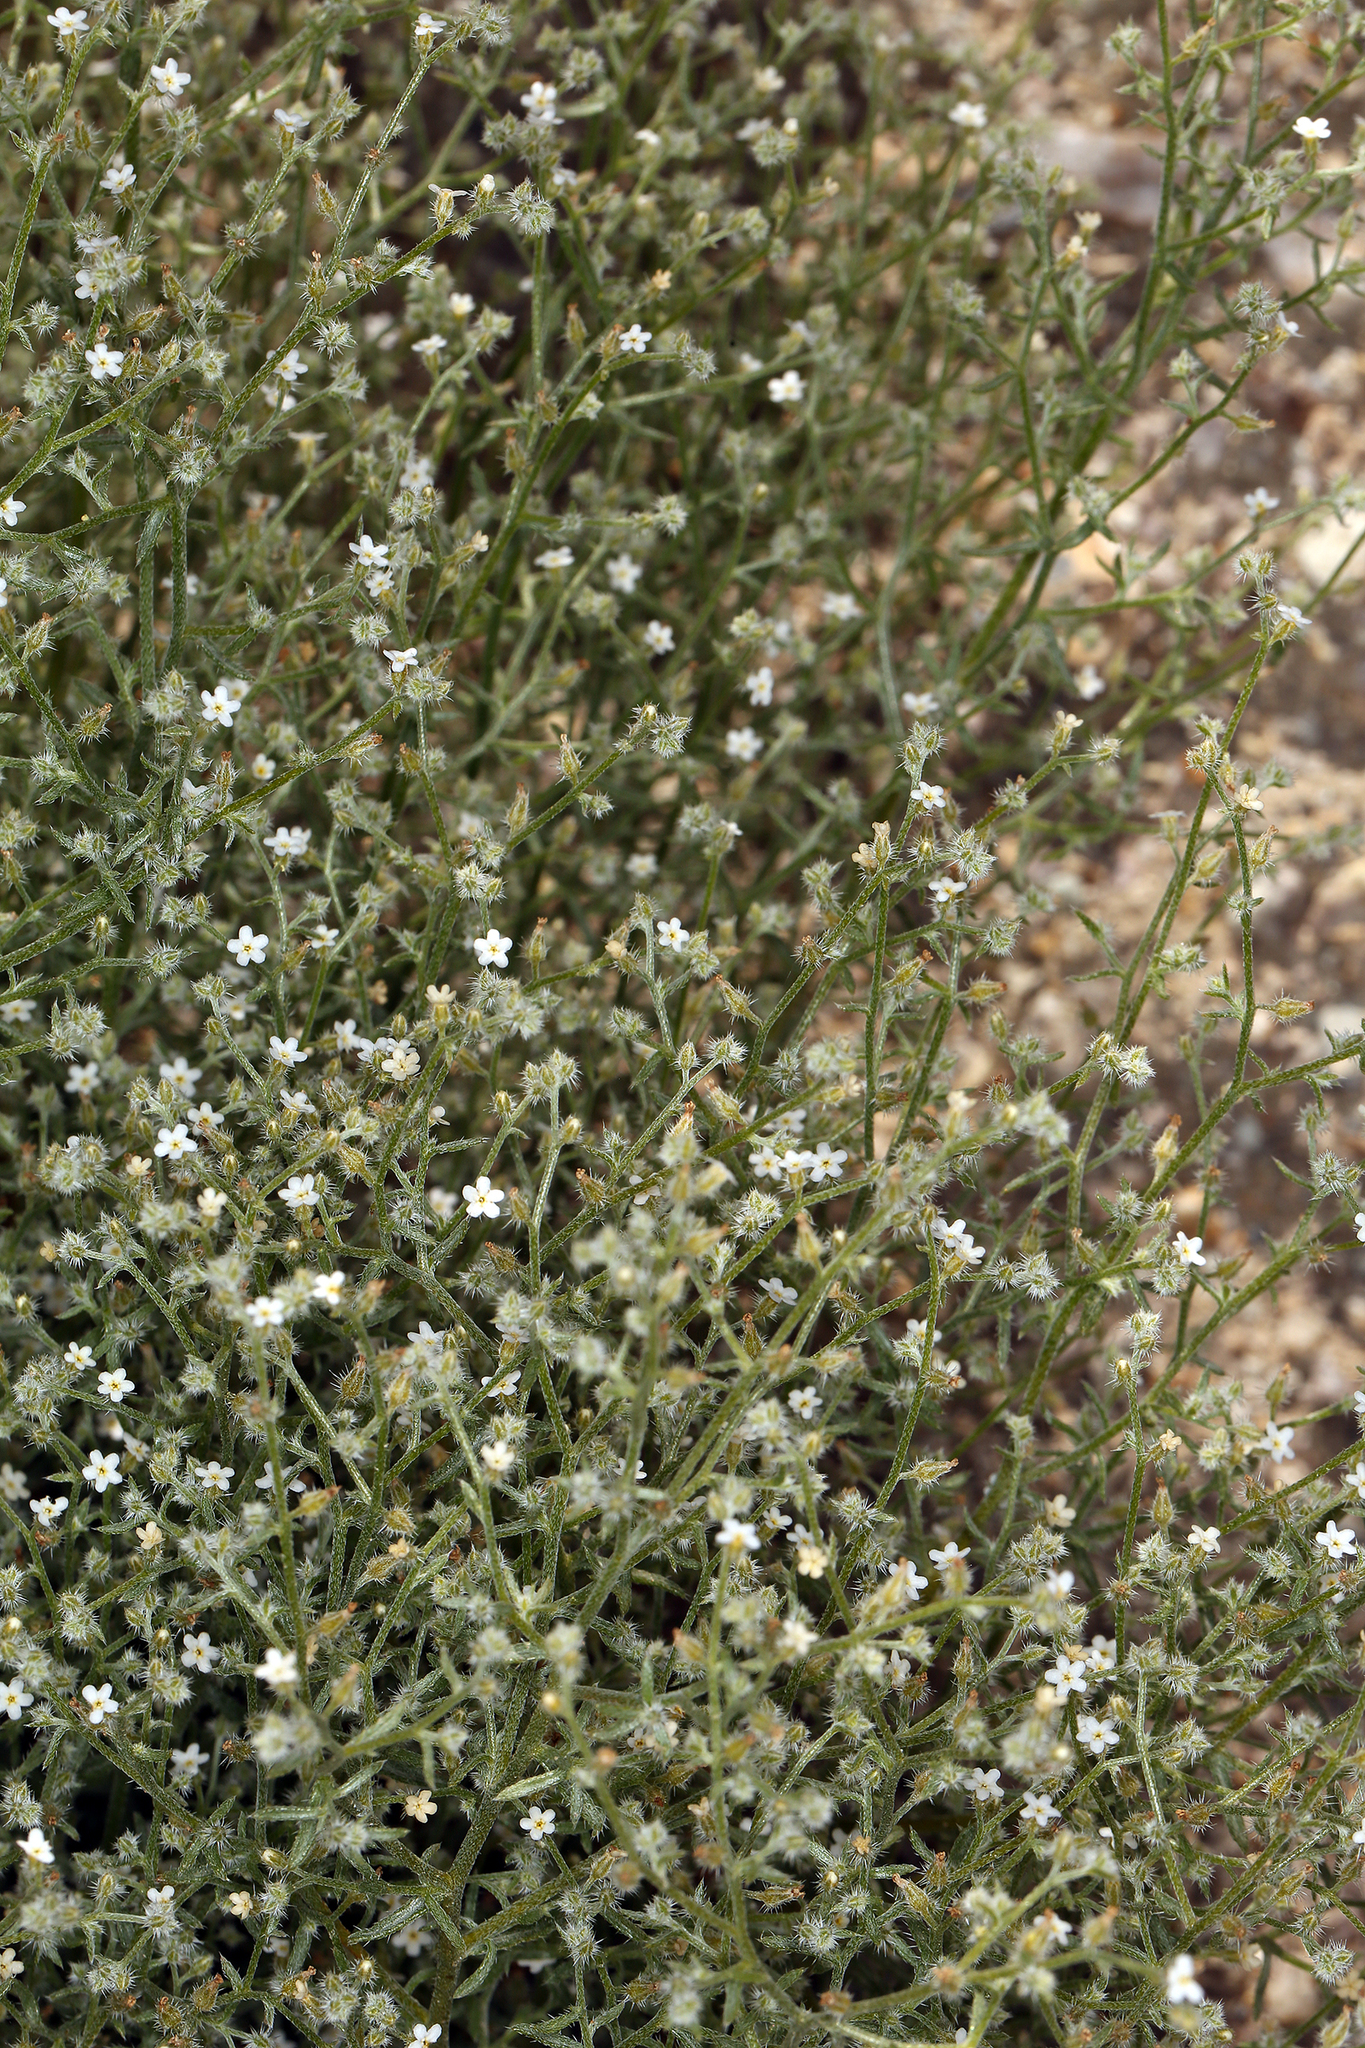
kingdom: Plantae
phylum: Tracheophyta
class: Magnoliopsida
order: Boraginales
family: Boraginaceae
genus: Johnstonella
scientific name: Johnstonella racemosa
